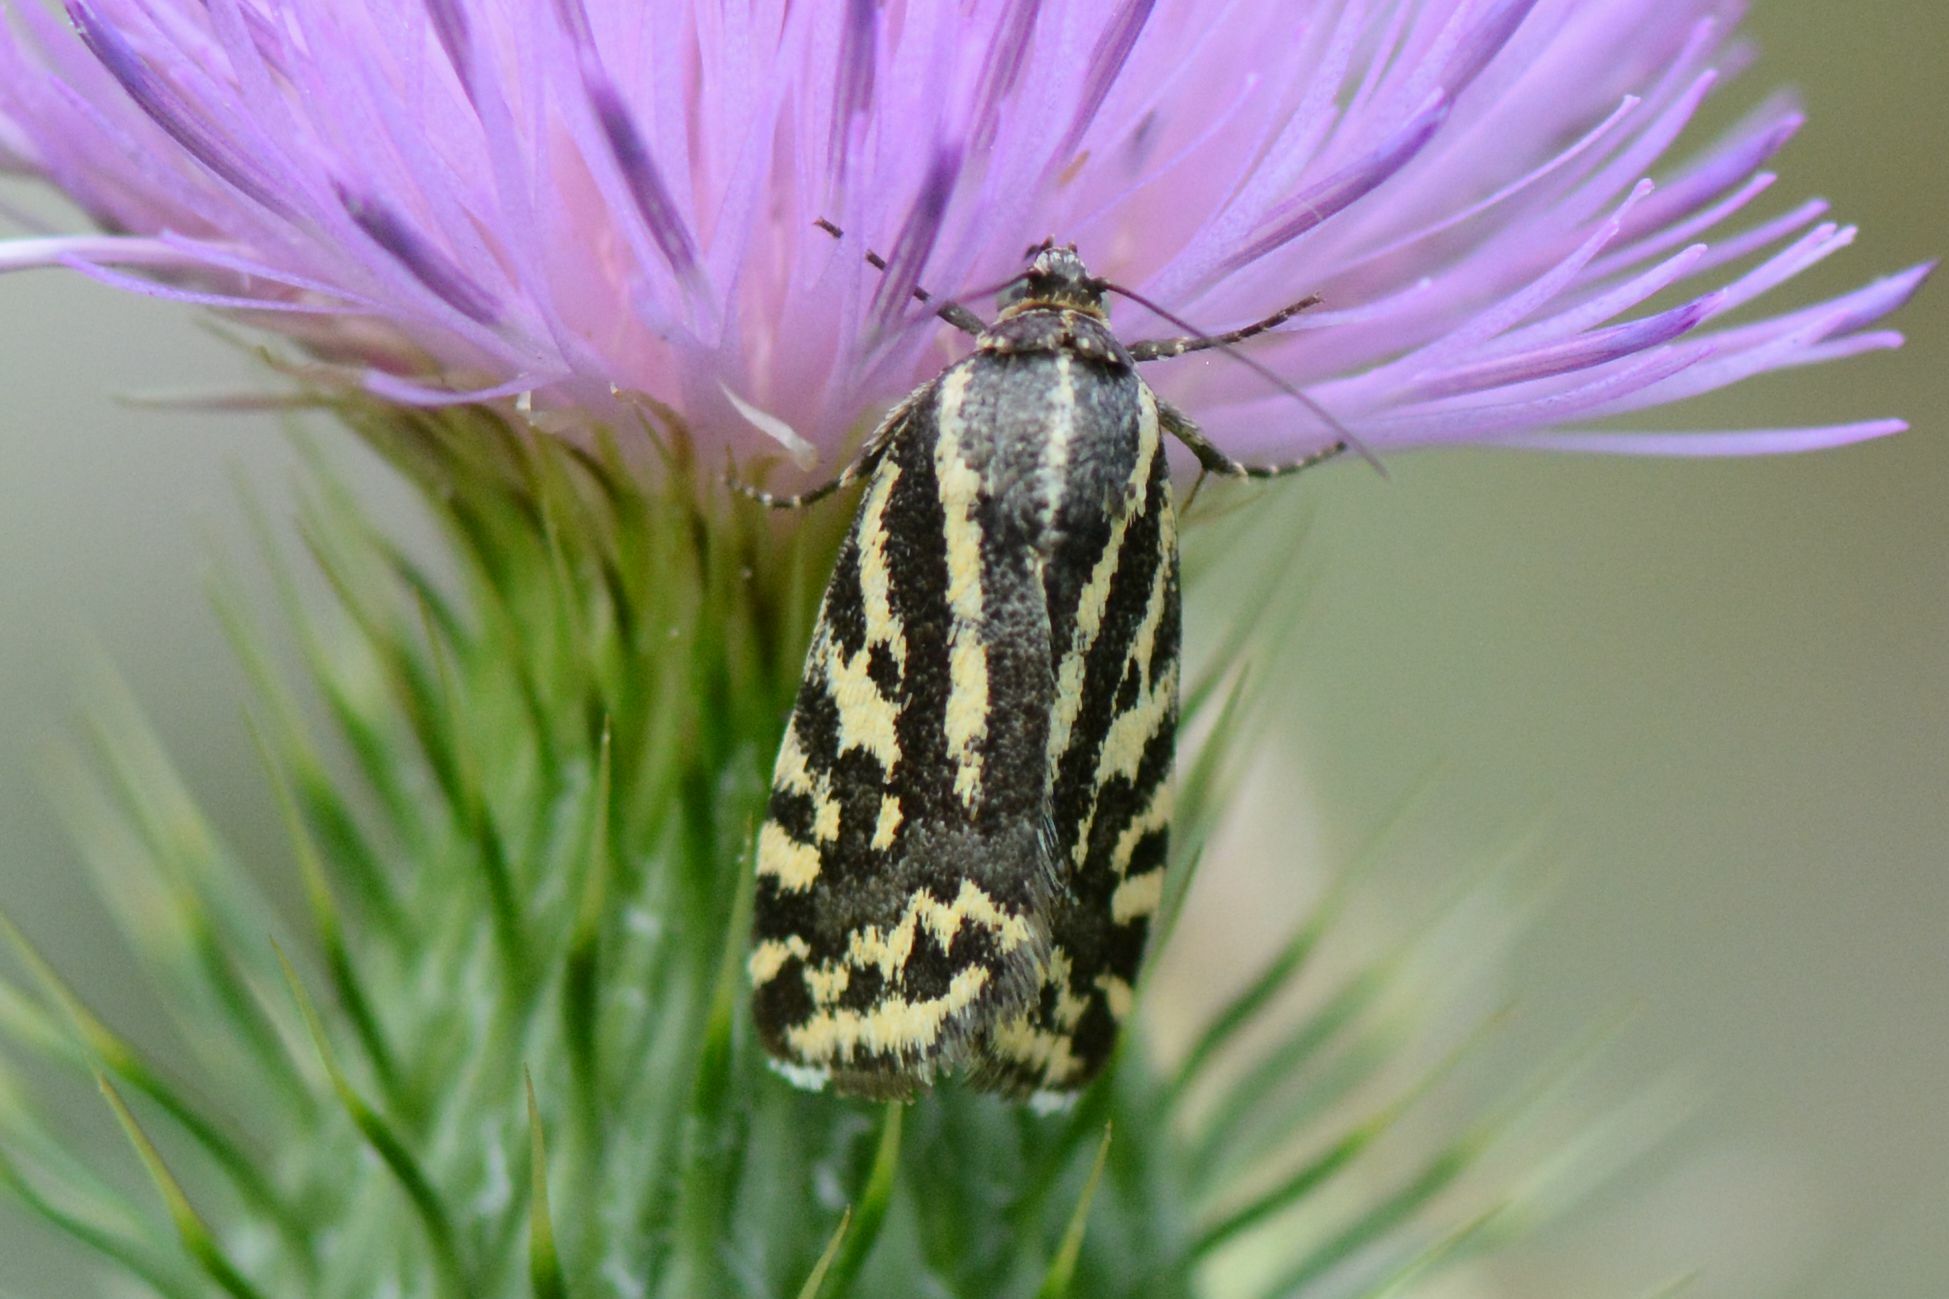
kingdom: Animalia
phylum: Arthropoda
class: Insecta
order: Lepidoptera
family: Noctuidae
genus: Acontia
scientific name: Acontia trabealis
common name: Spotted sulphur
